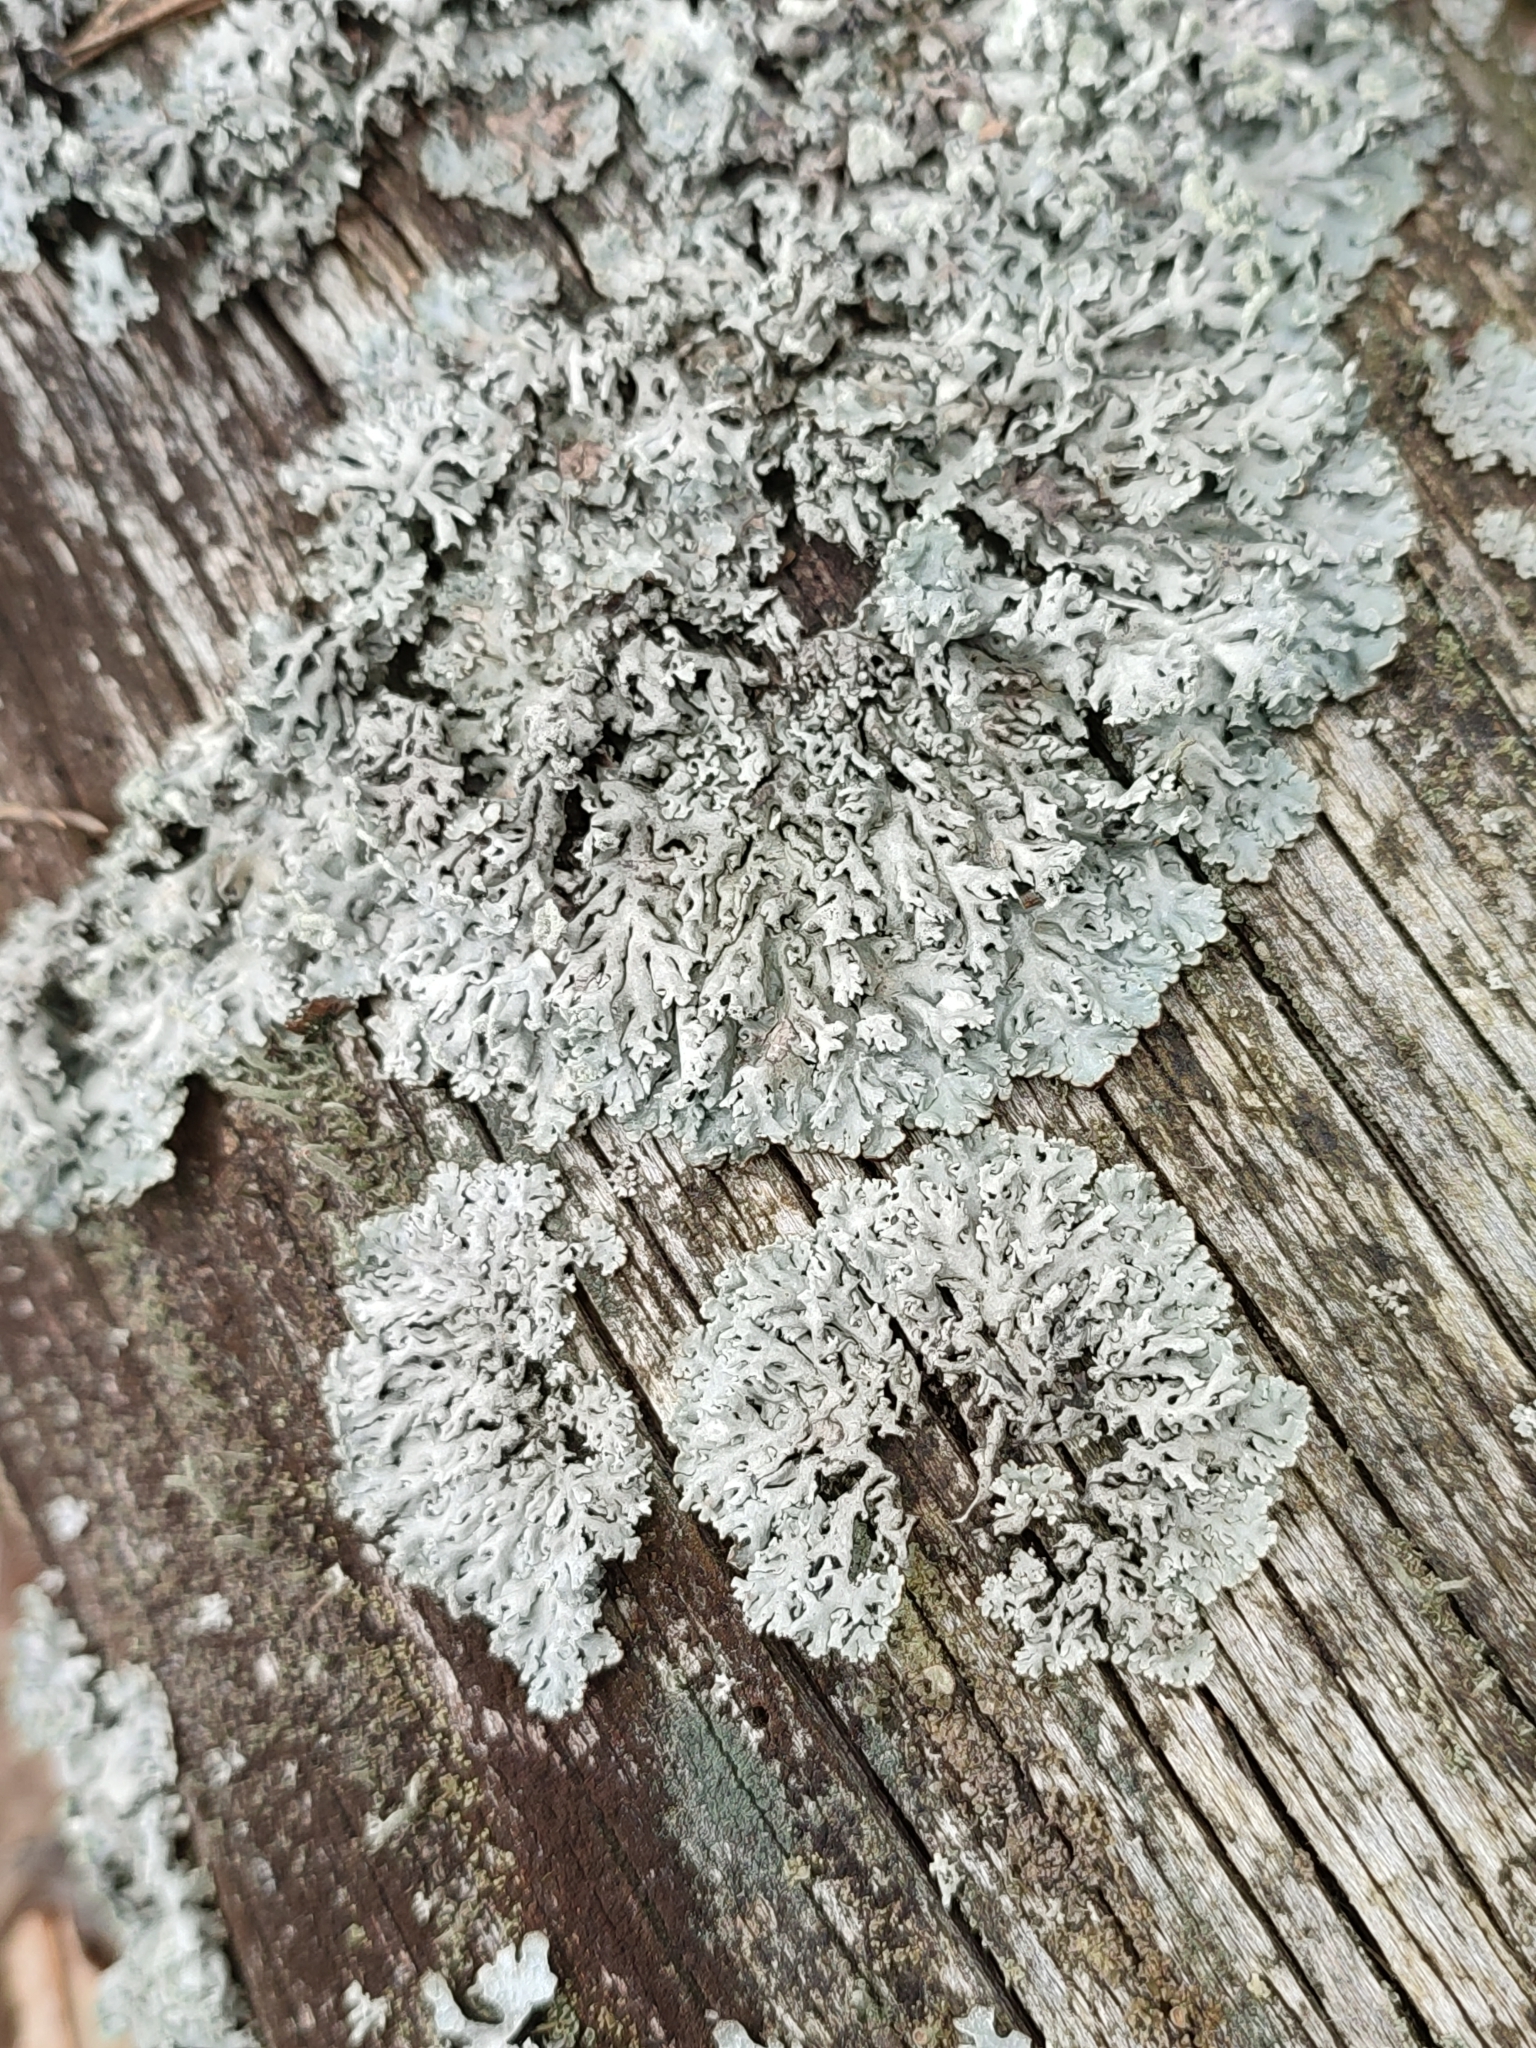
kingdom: Fungi
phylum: Ascomycota
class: Lecanoromycetes
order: Lecanorales
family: Parmeliaceae
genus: Hypogymnia
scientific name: Hypogymnia physodes
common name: Dark crottle
